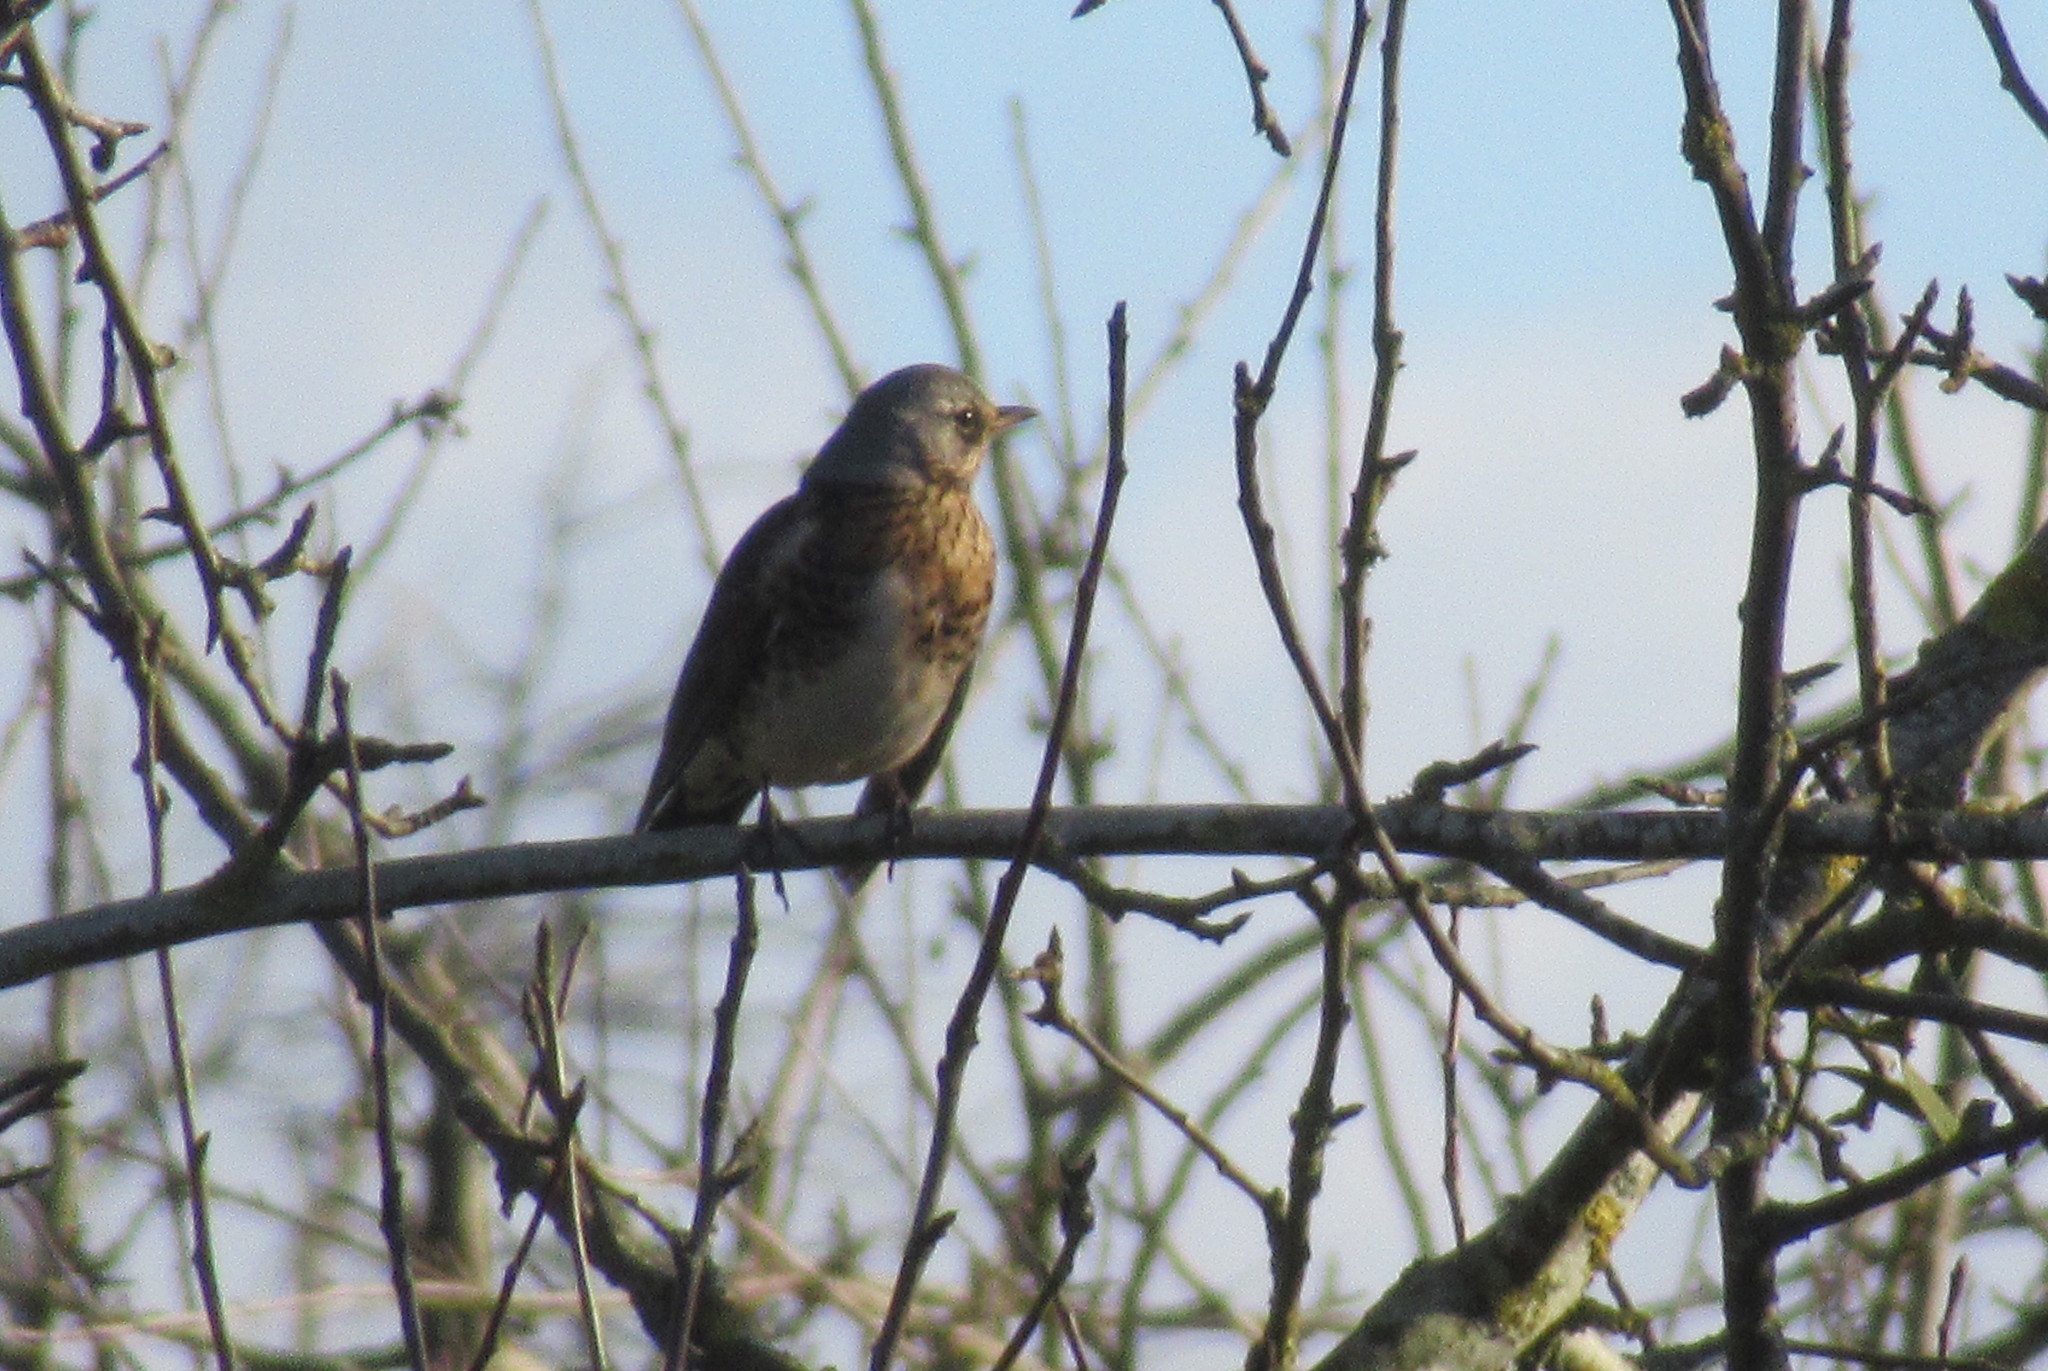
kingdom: Animalia
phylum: Chordata
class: Aves
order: Passeriformes
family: Turdidae
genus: Turdus
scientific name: Turdus pilaris
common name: Fieldfare
